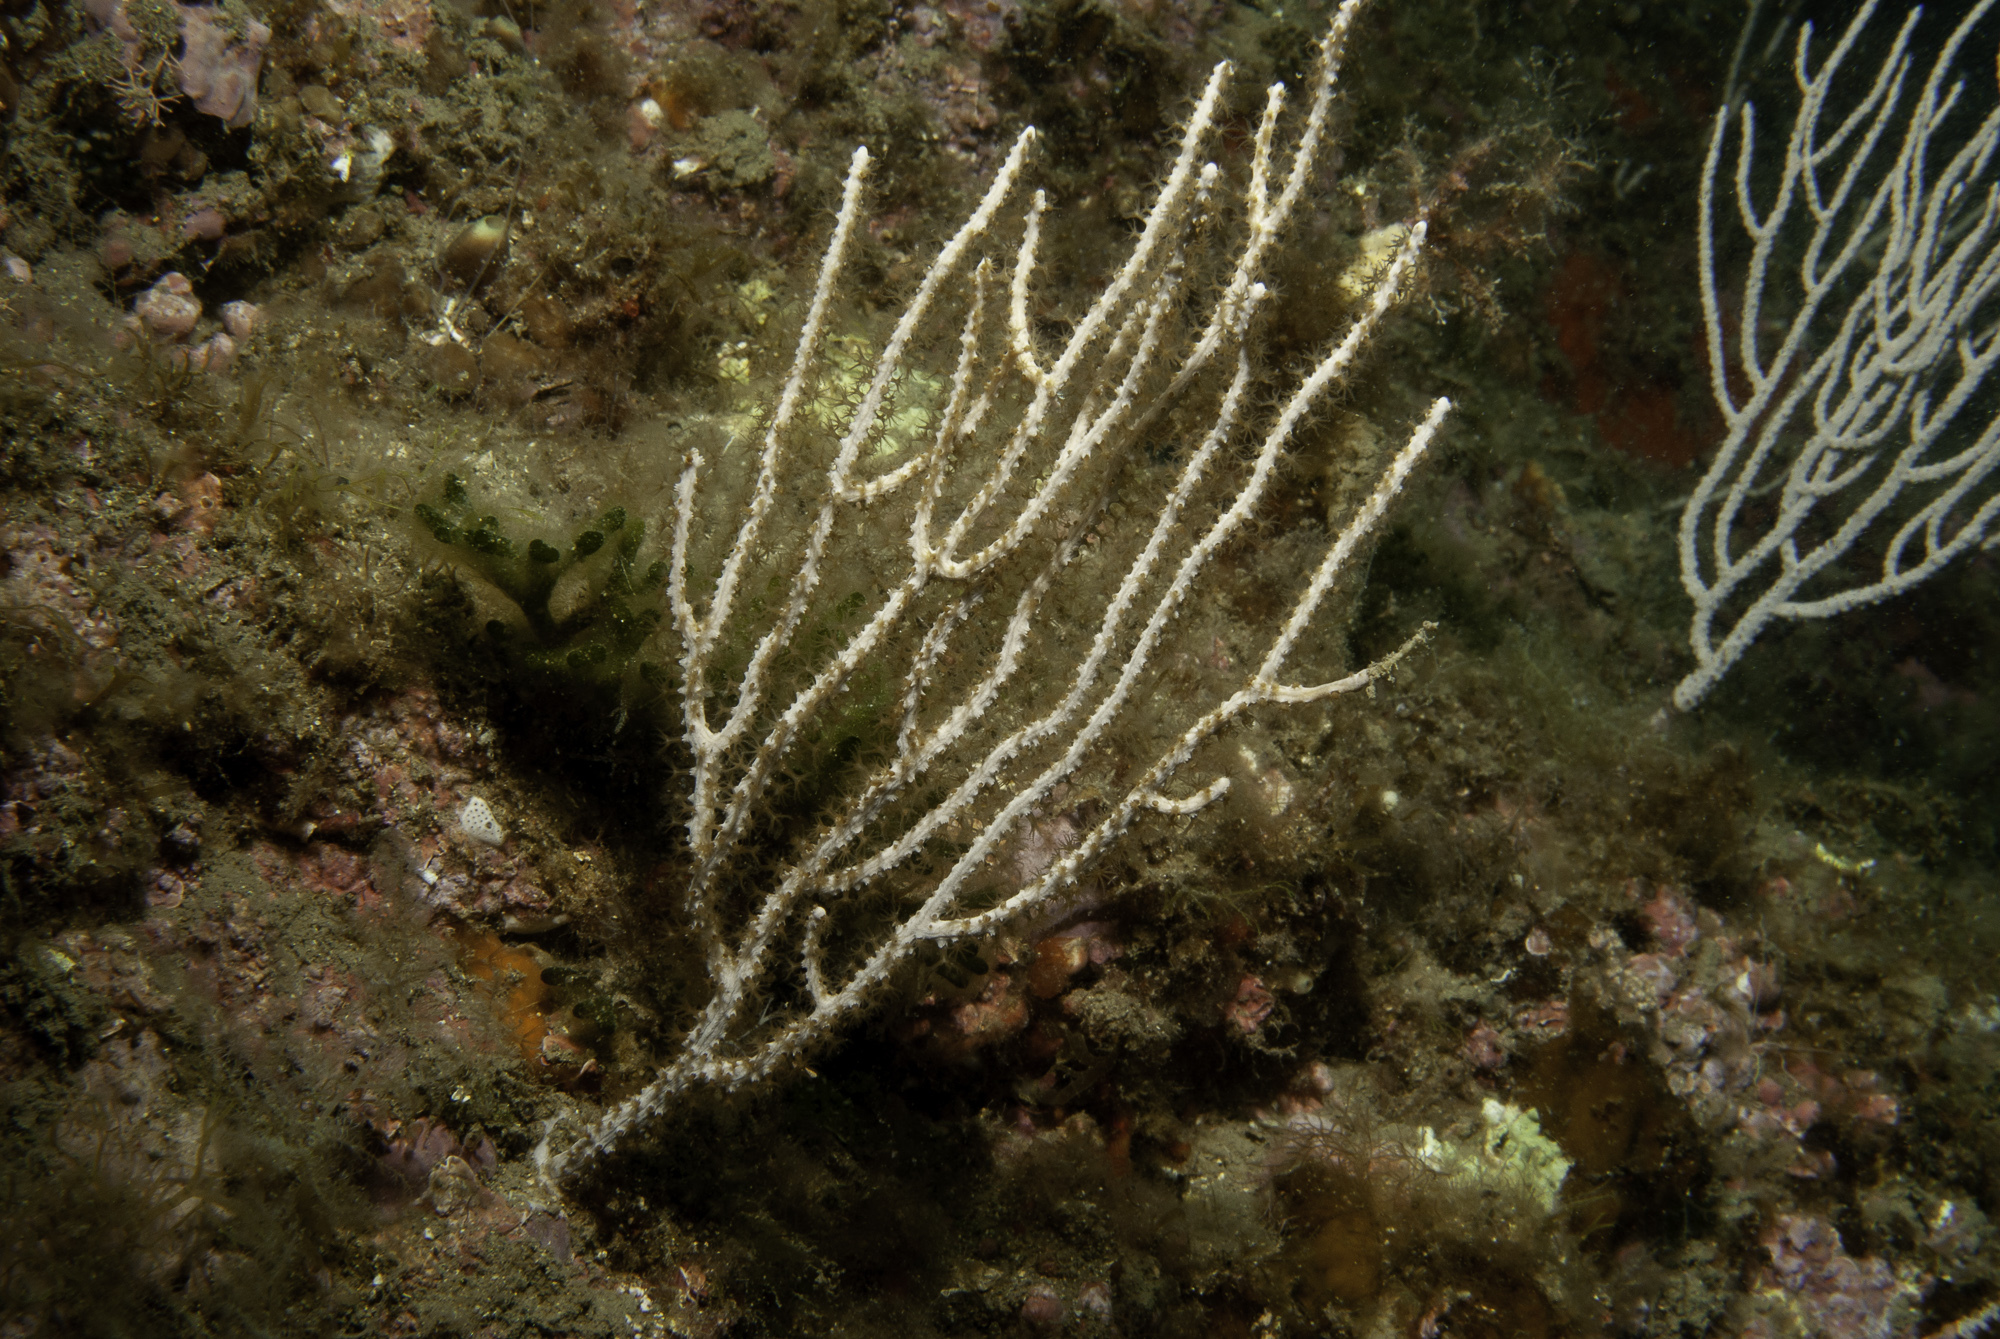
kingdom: Animalia
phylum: Cnidaria
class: Anthozoa
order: Malacalcyonacea
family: Eunicellidae
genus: Eunicella
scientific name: Eunicella singularis
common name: White horny coral
